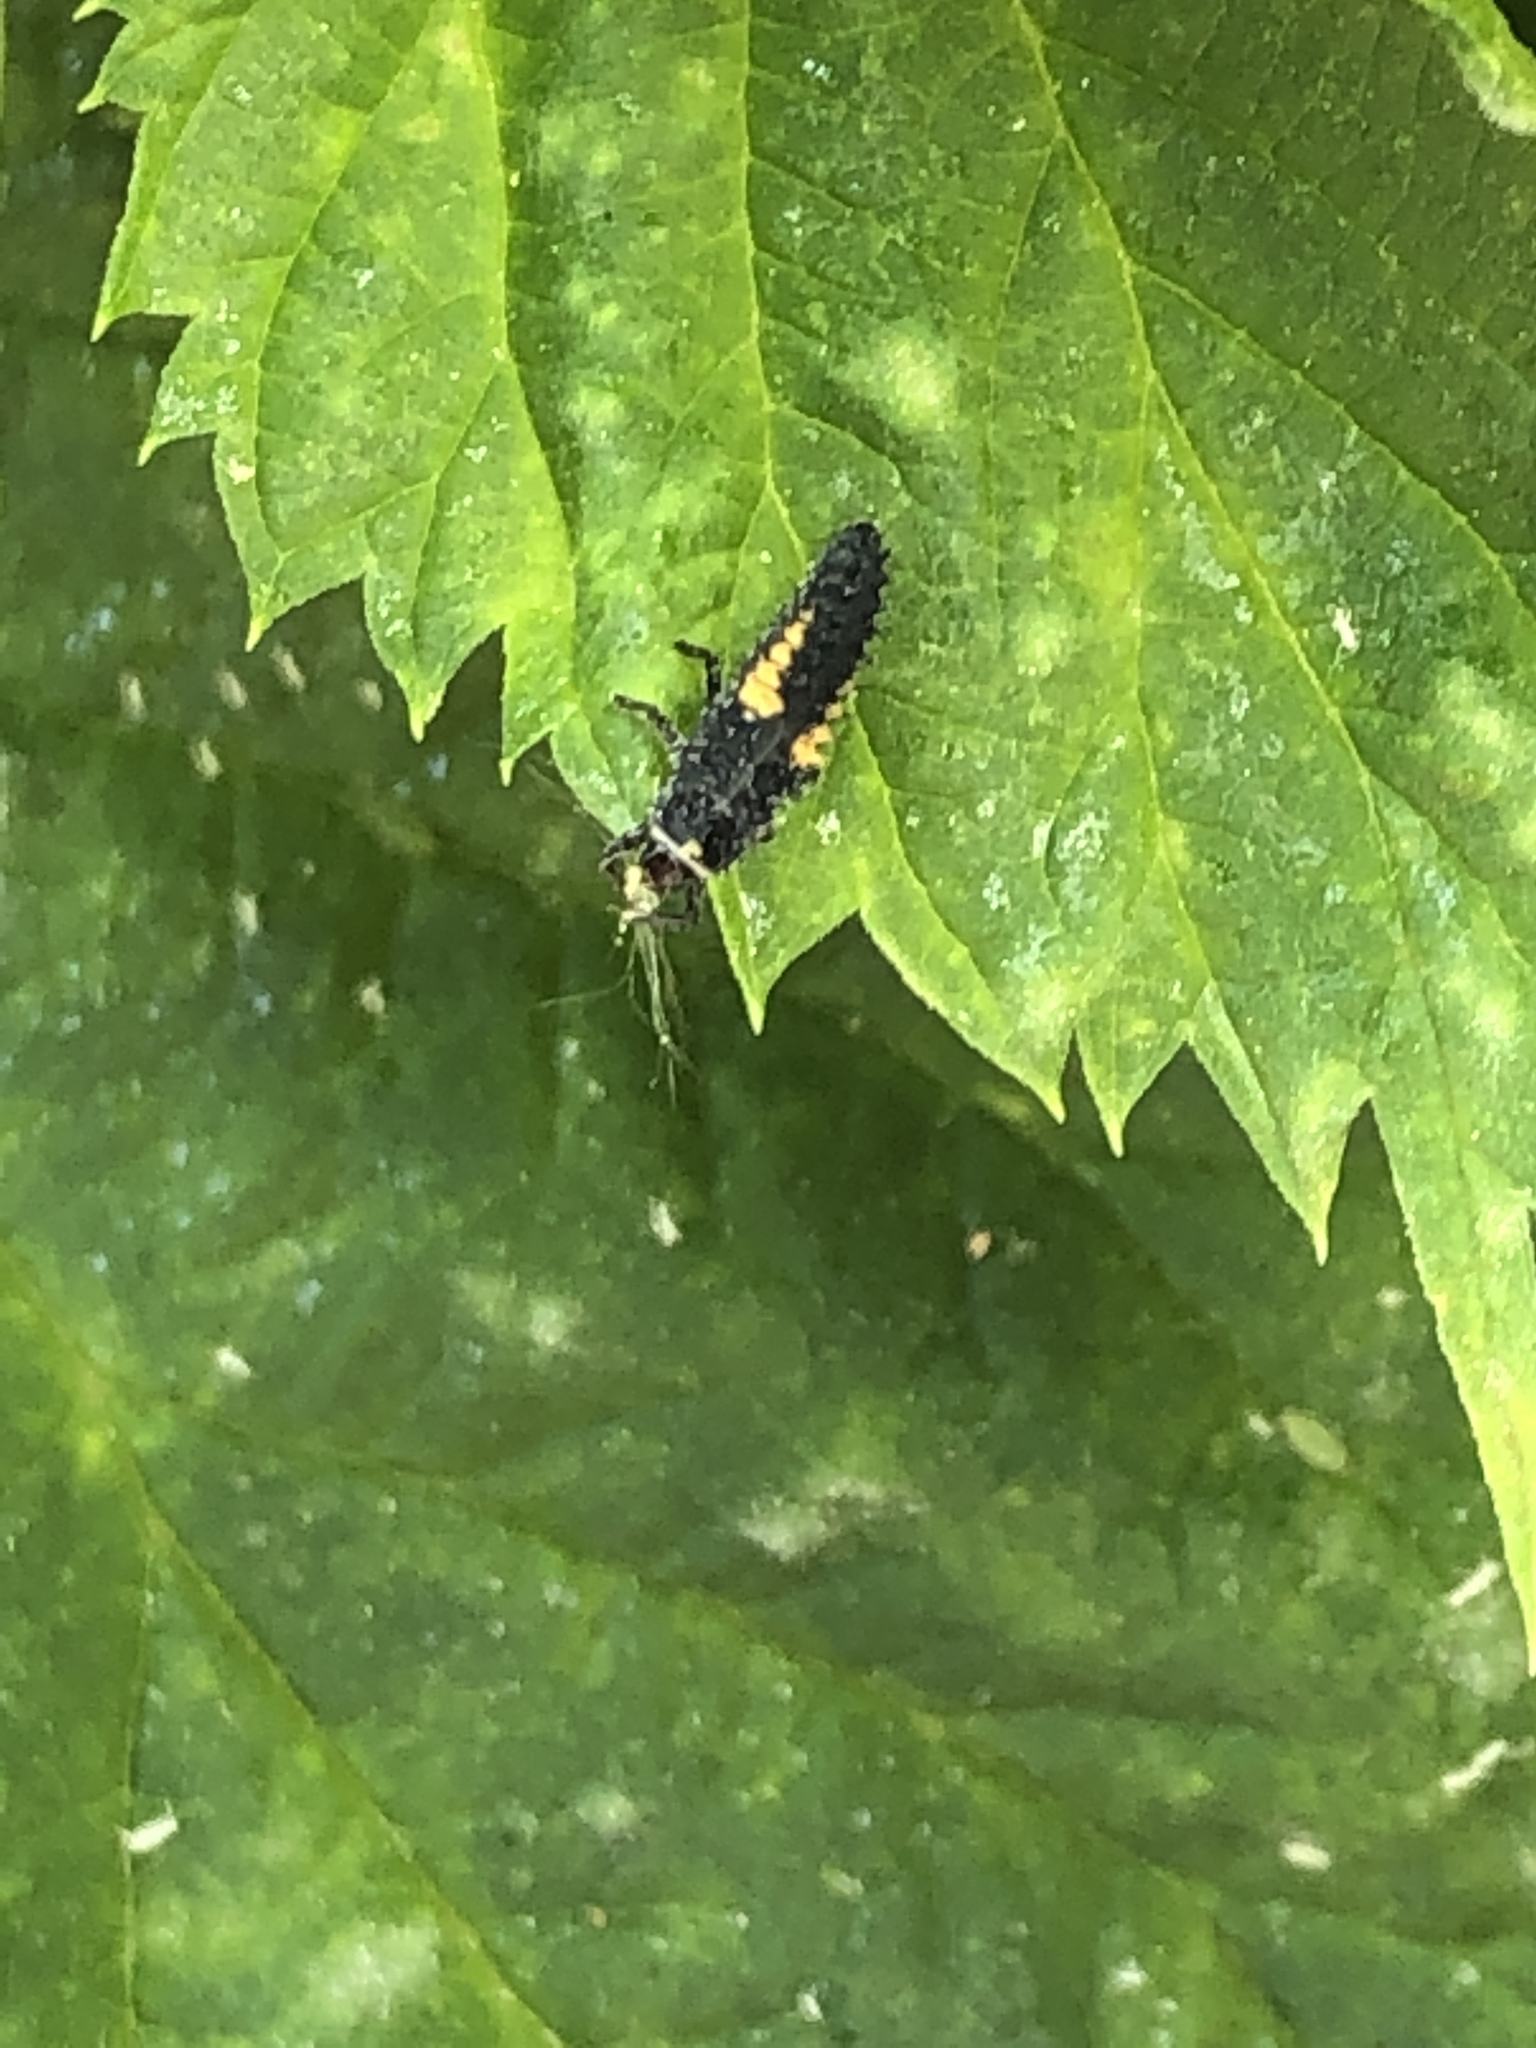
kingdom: Animalia
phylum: Arthropoda
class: Insecta
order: Coleoptera
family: Coccinellidae
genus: Harmonia
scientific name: Harmonia axyridis
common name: Harlequin ladybird
